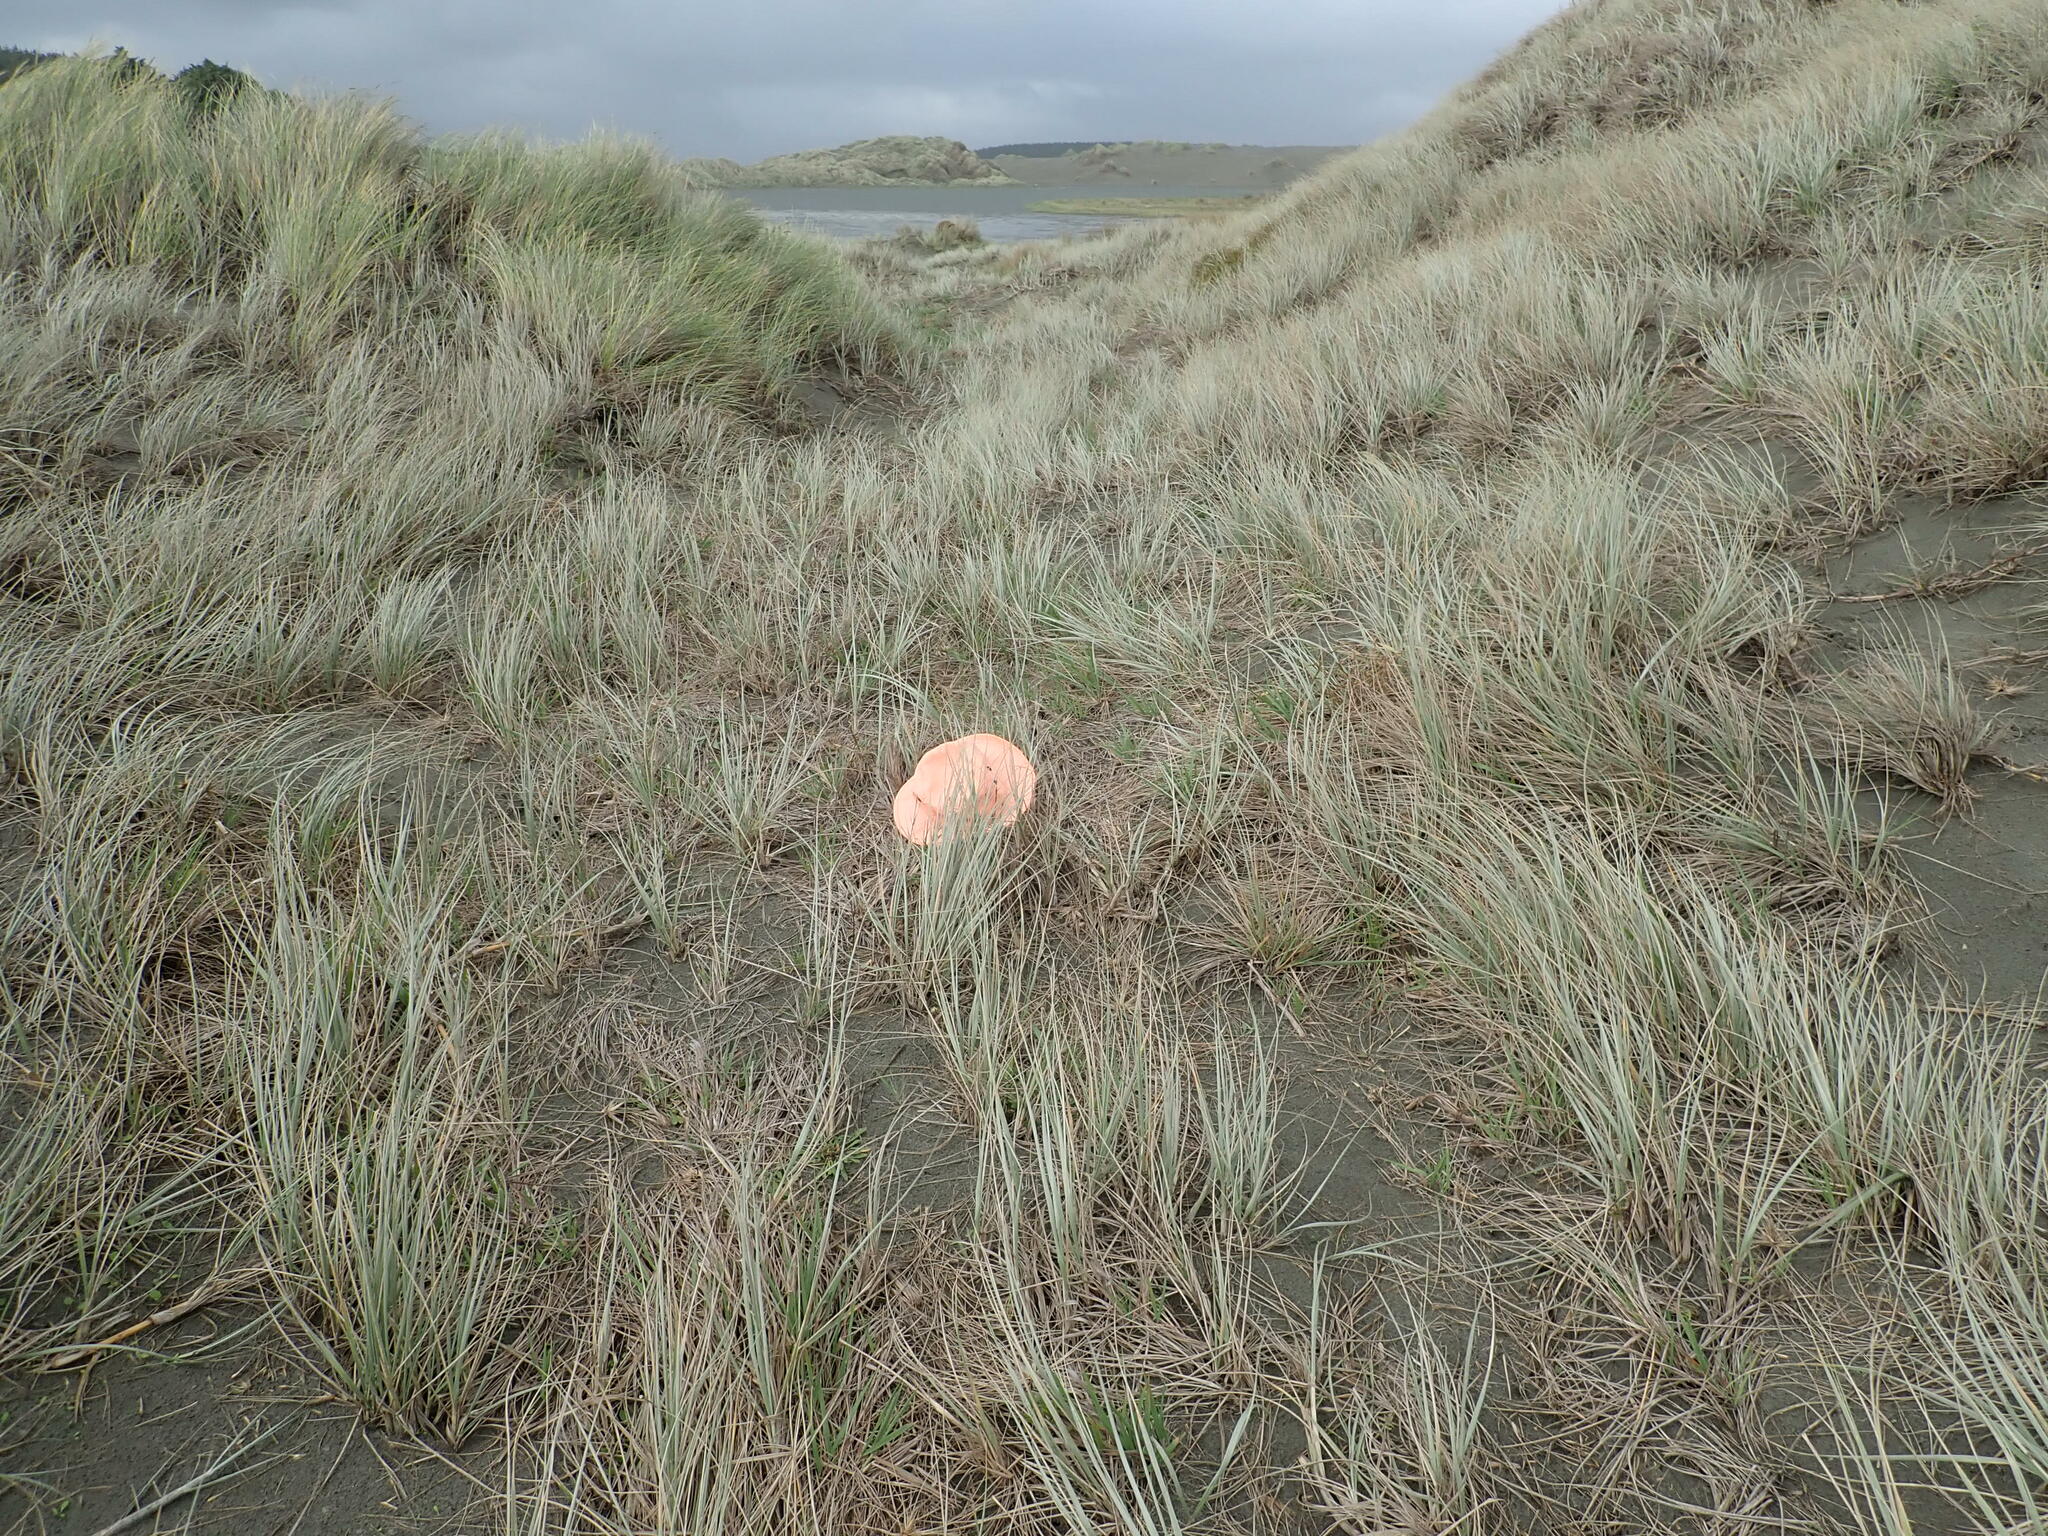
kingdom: Plantae
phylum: Tracheophyta
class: Magnoliopsida
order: Gentianales
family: Rubiaceae
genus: Coprosma
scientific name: Coprosma acerosa
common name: Sand coprosma
